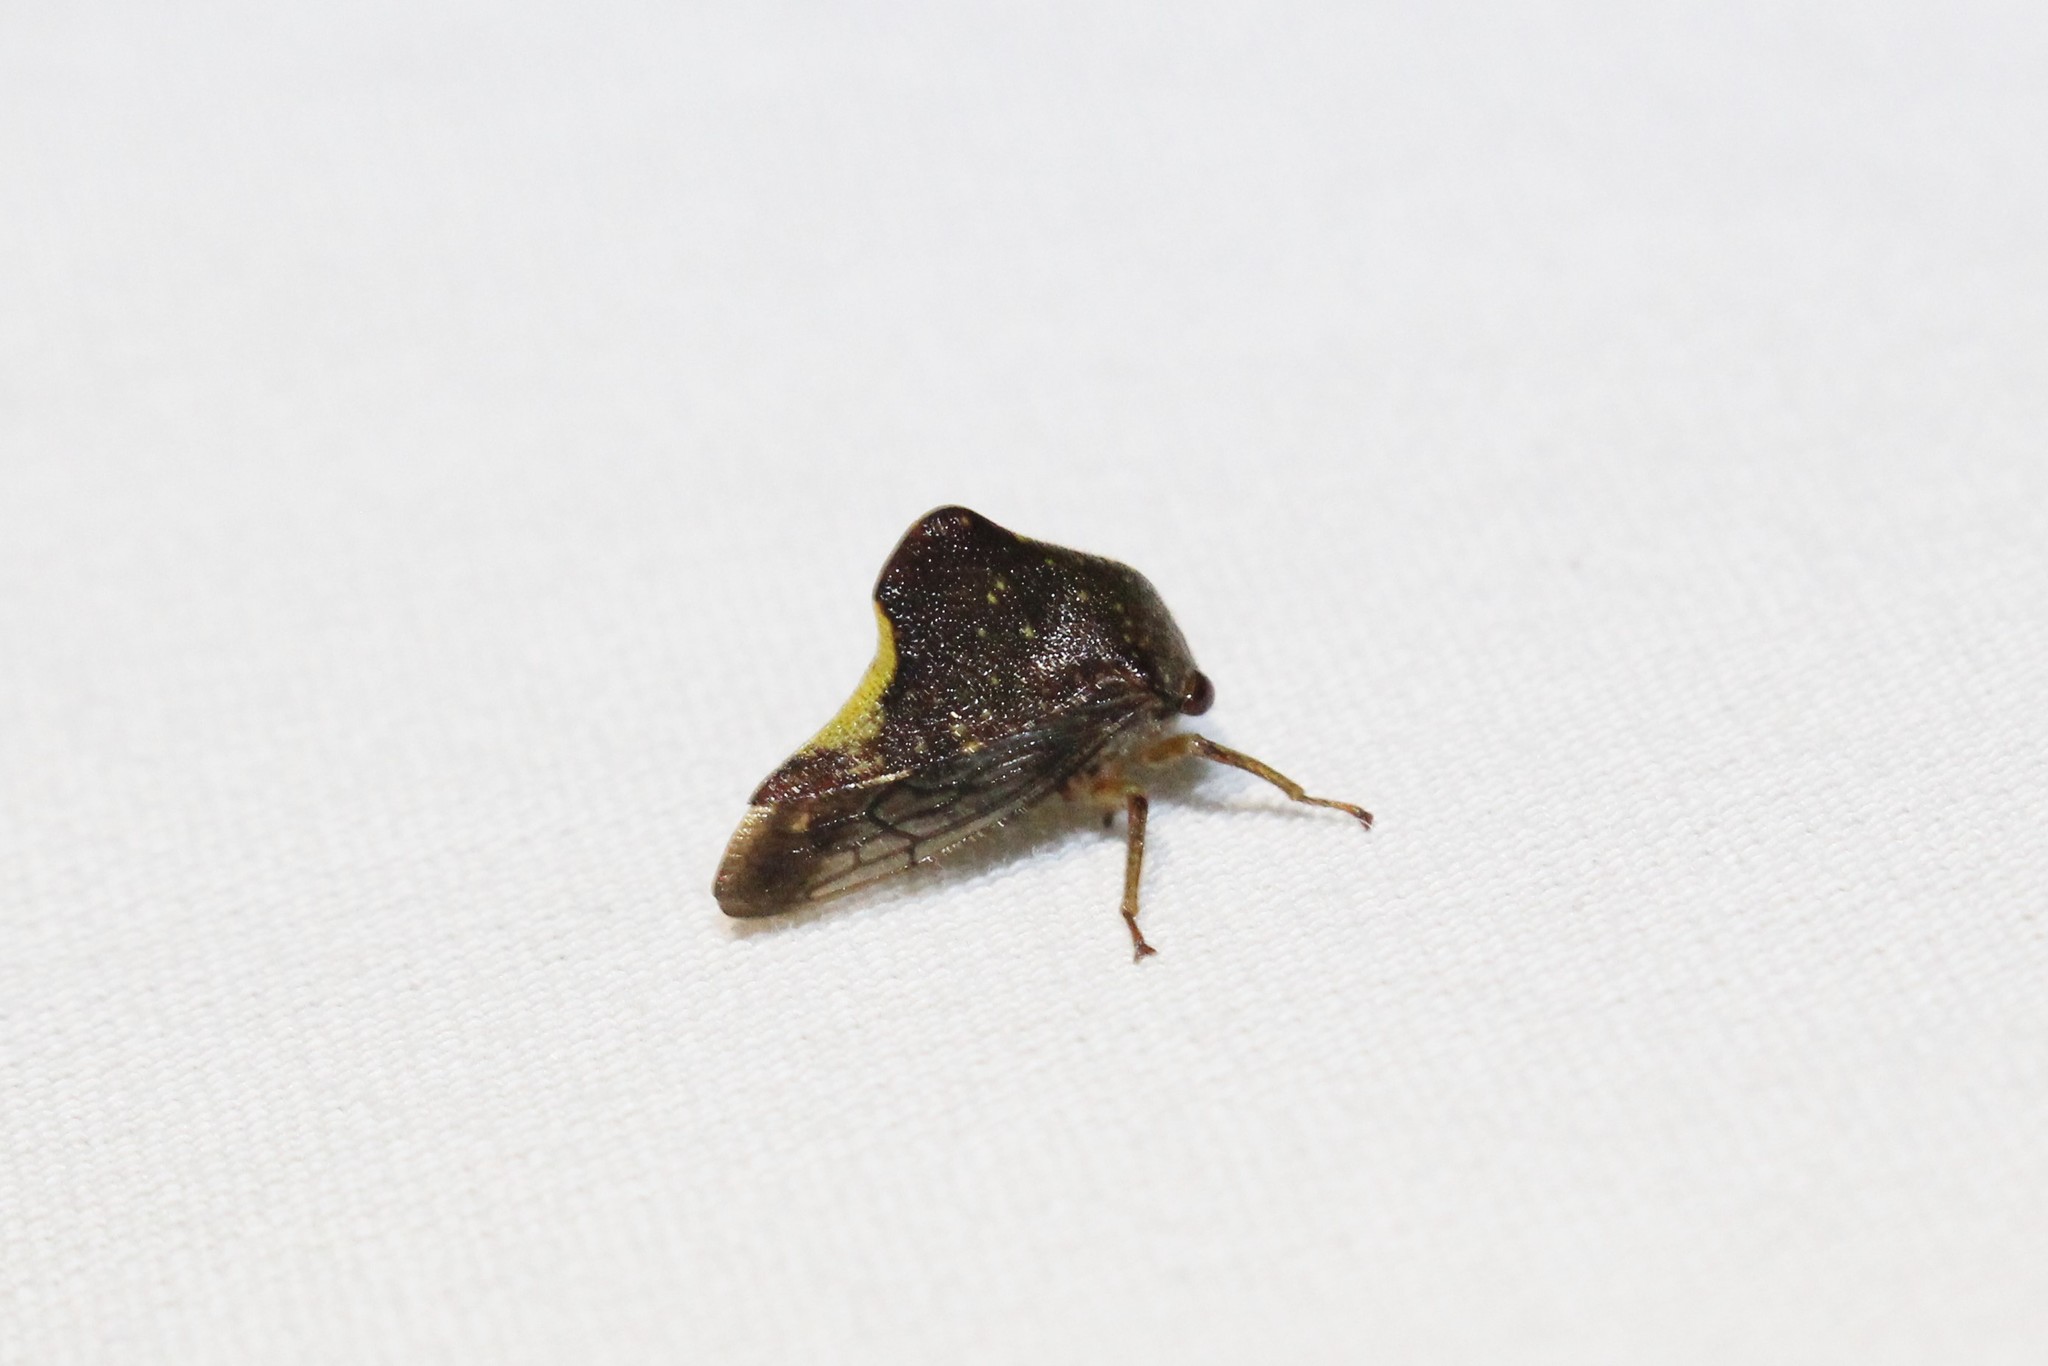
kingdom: Animalia
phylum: Arthropoda
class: Insecta
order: Hemiptera
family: Membracidae
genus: Telamona
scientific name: Telamona monticola
